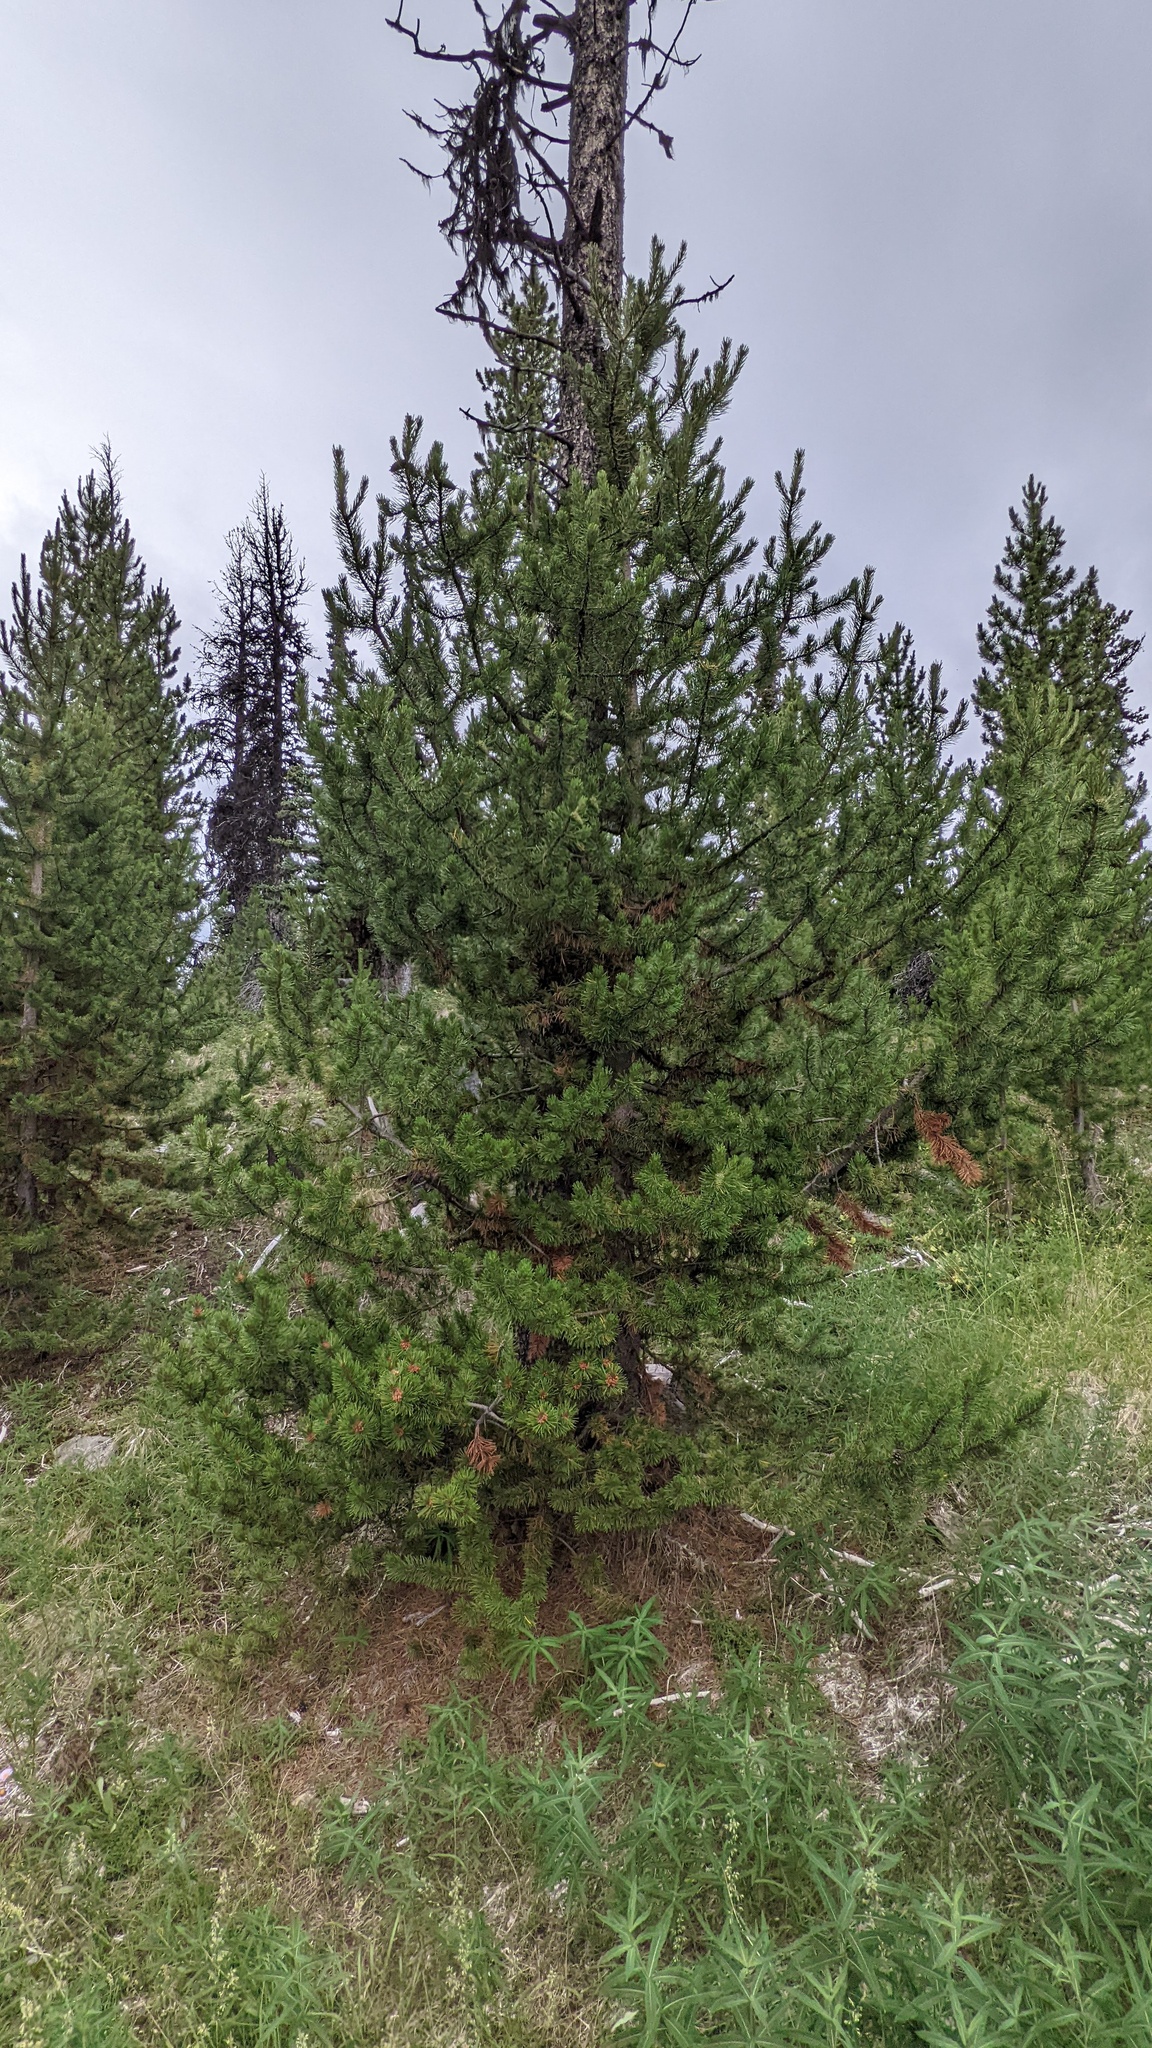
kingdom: Plantae
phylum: Tracheophyta
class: Pinopsida
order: Pinales
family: Pinaceae
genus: Pinus
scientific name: Pinus contorta
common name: Lodgepole pine
